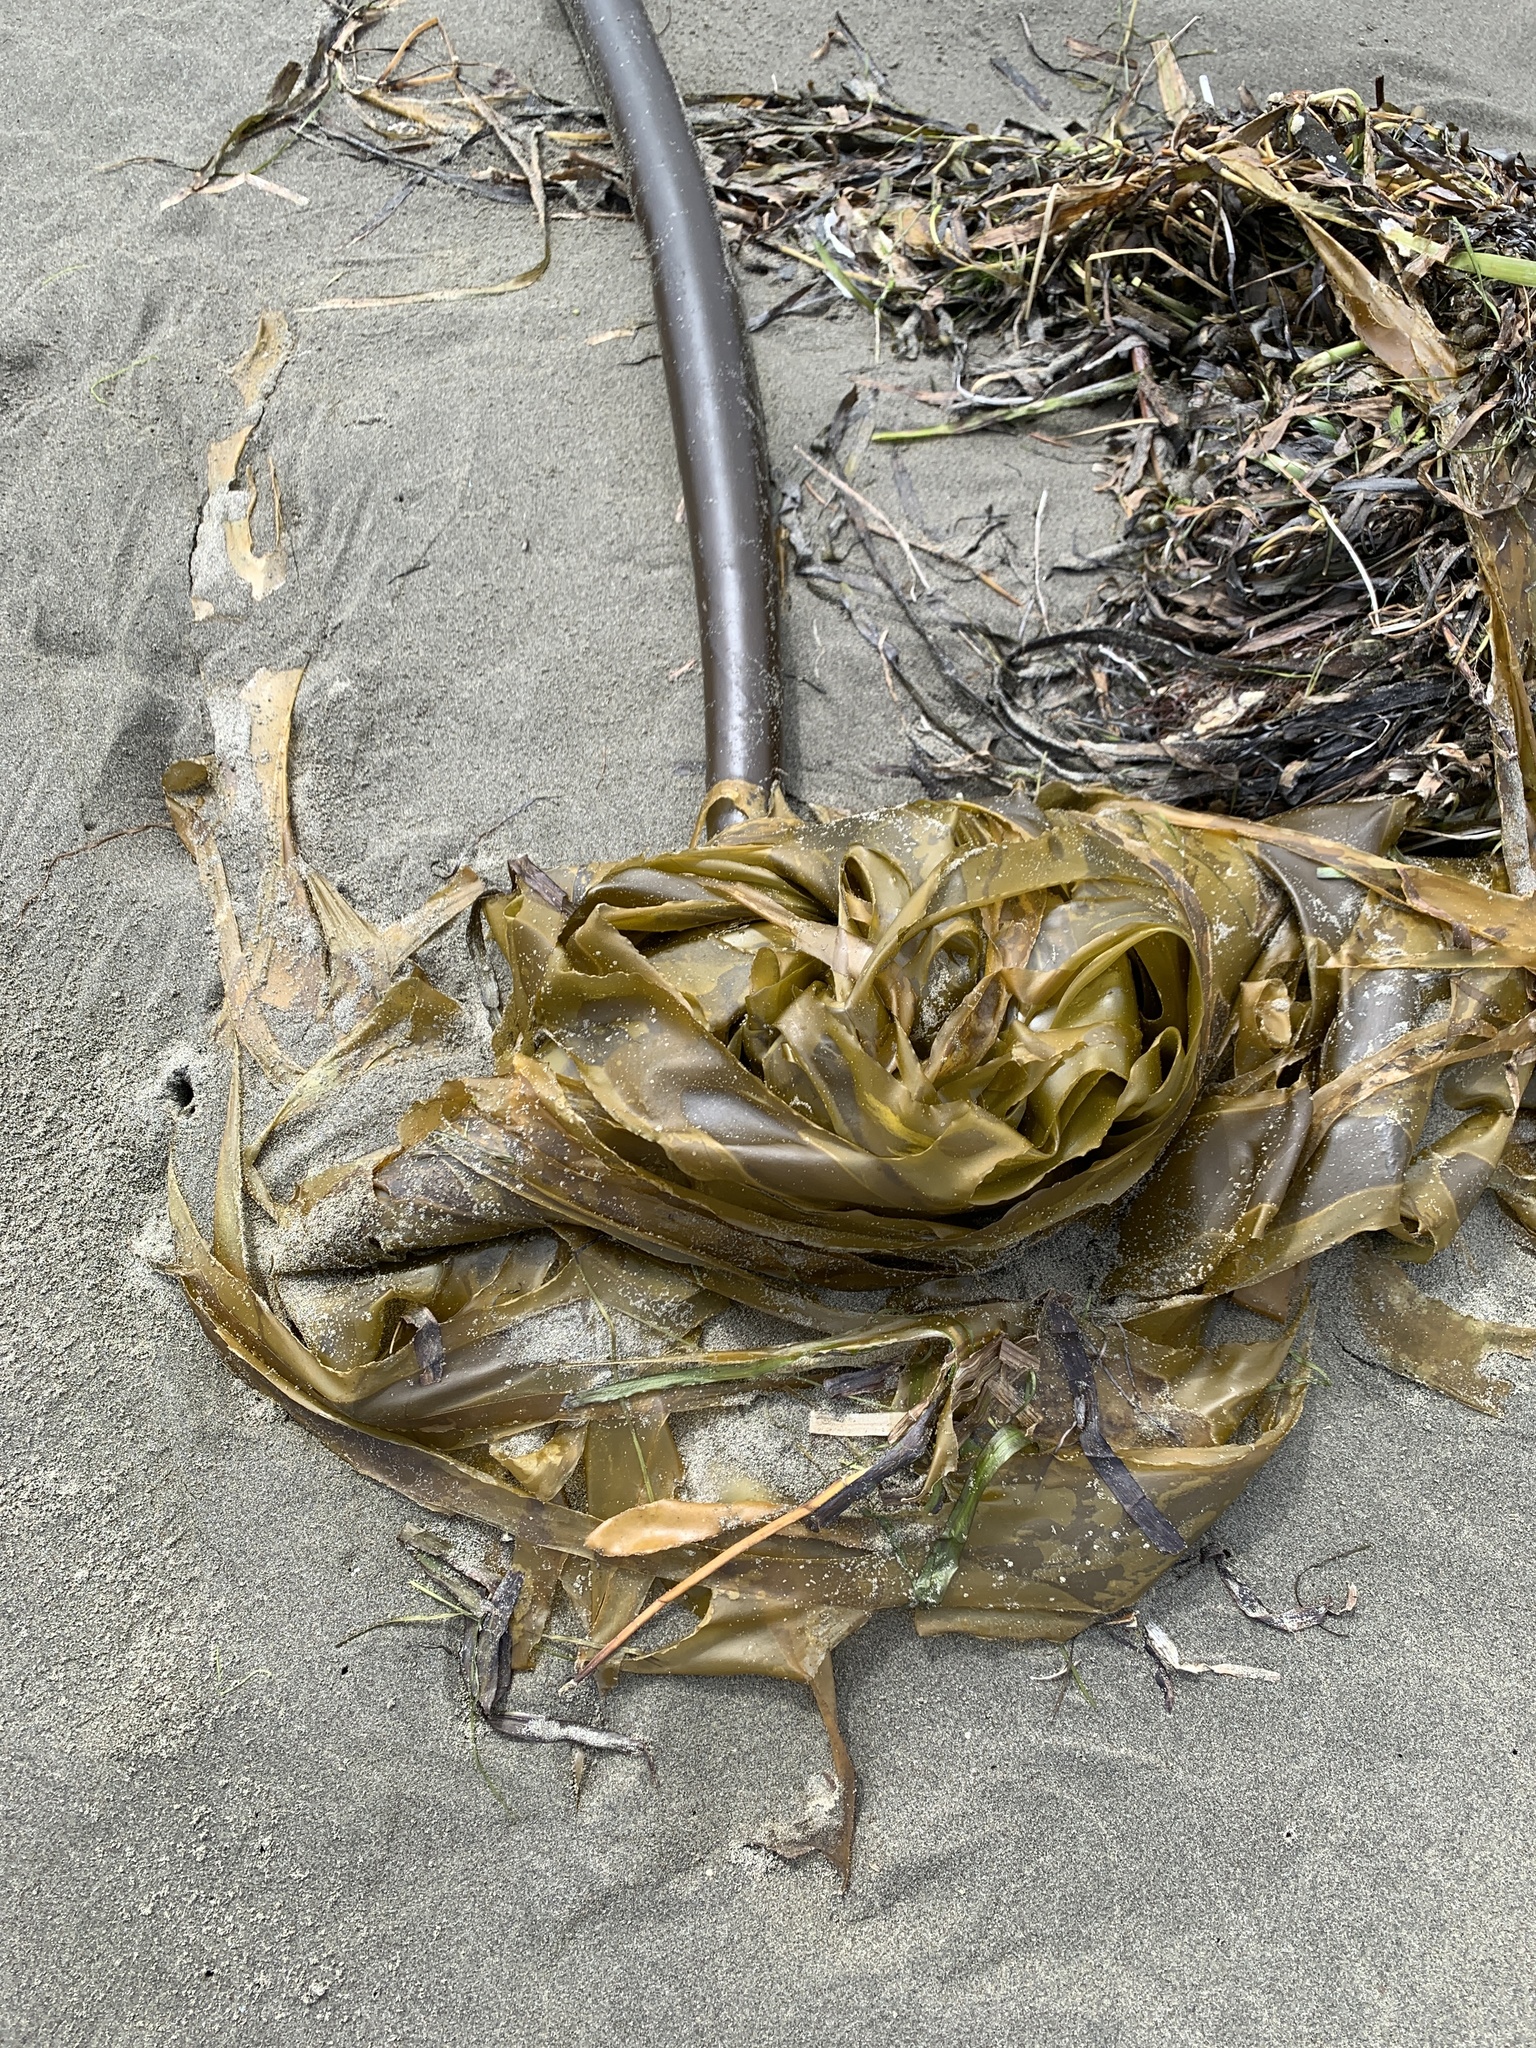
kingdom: Chromista
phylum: Ochrophyta
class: Phaeophyceae
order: Laminariales
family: Laminariaceae
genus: Nereocystis
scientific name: Nereocystis luetkeana
